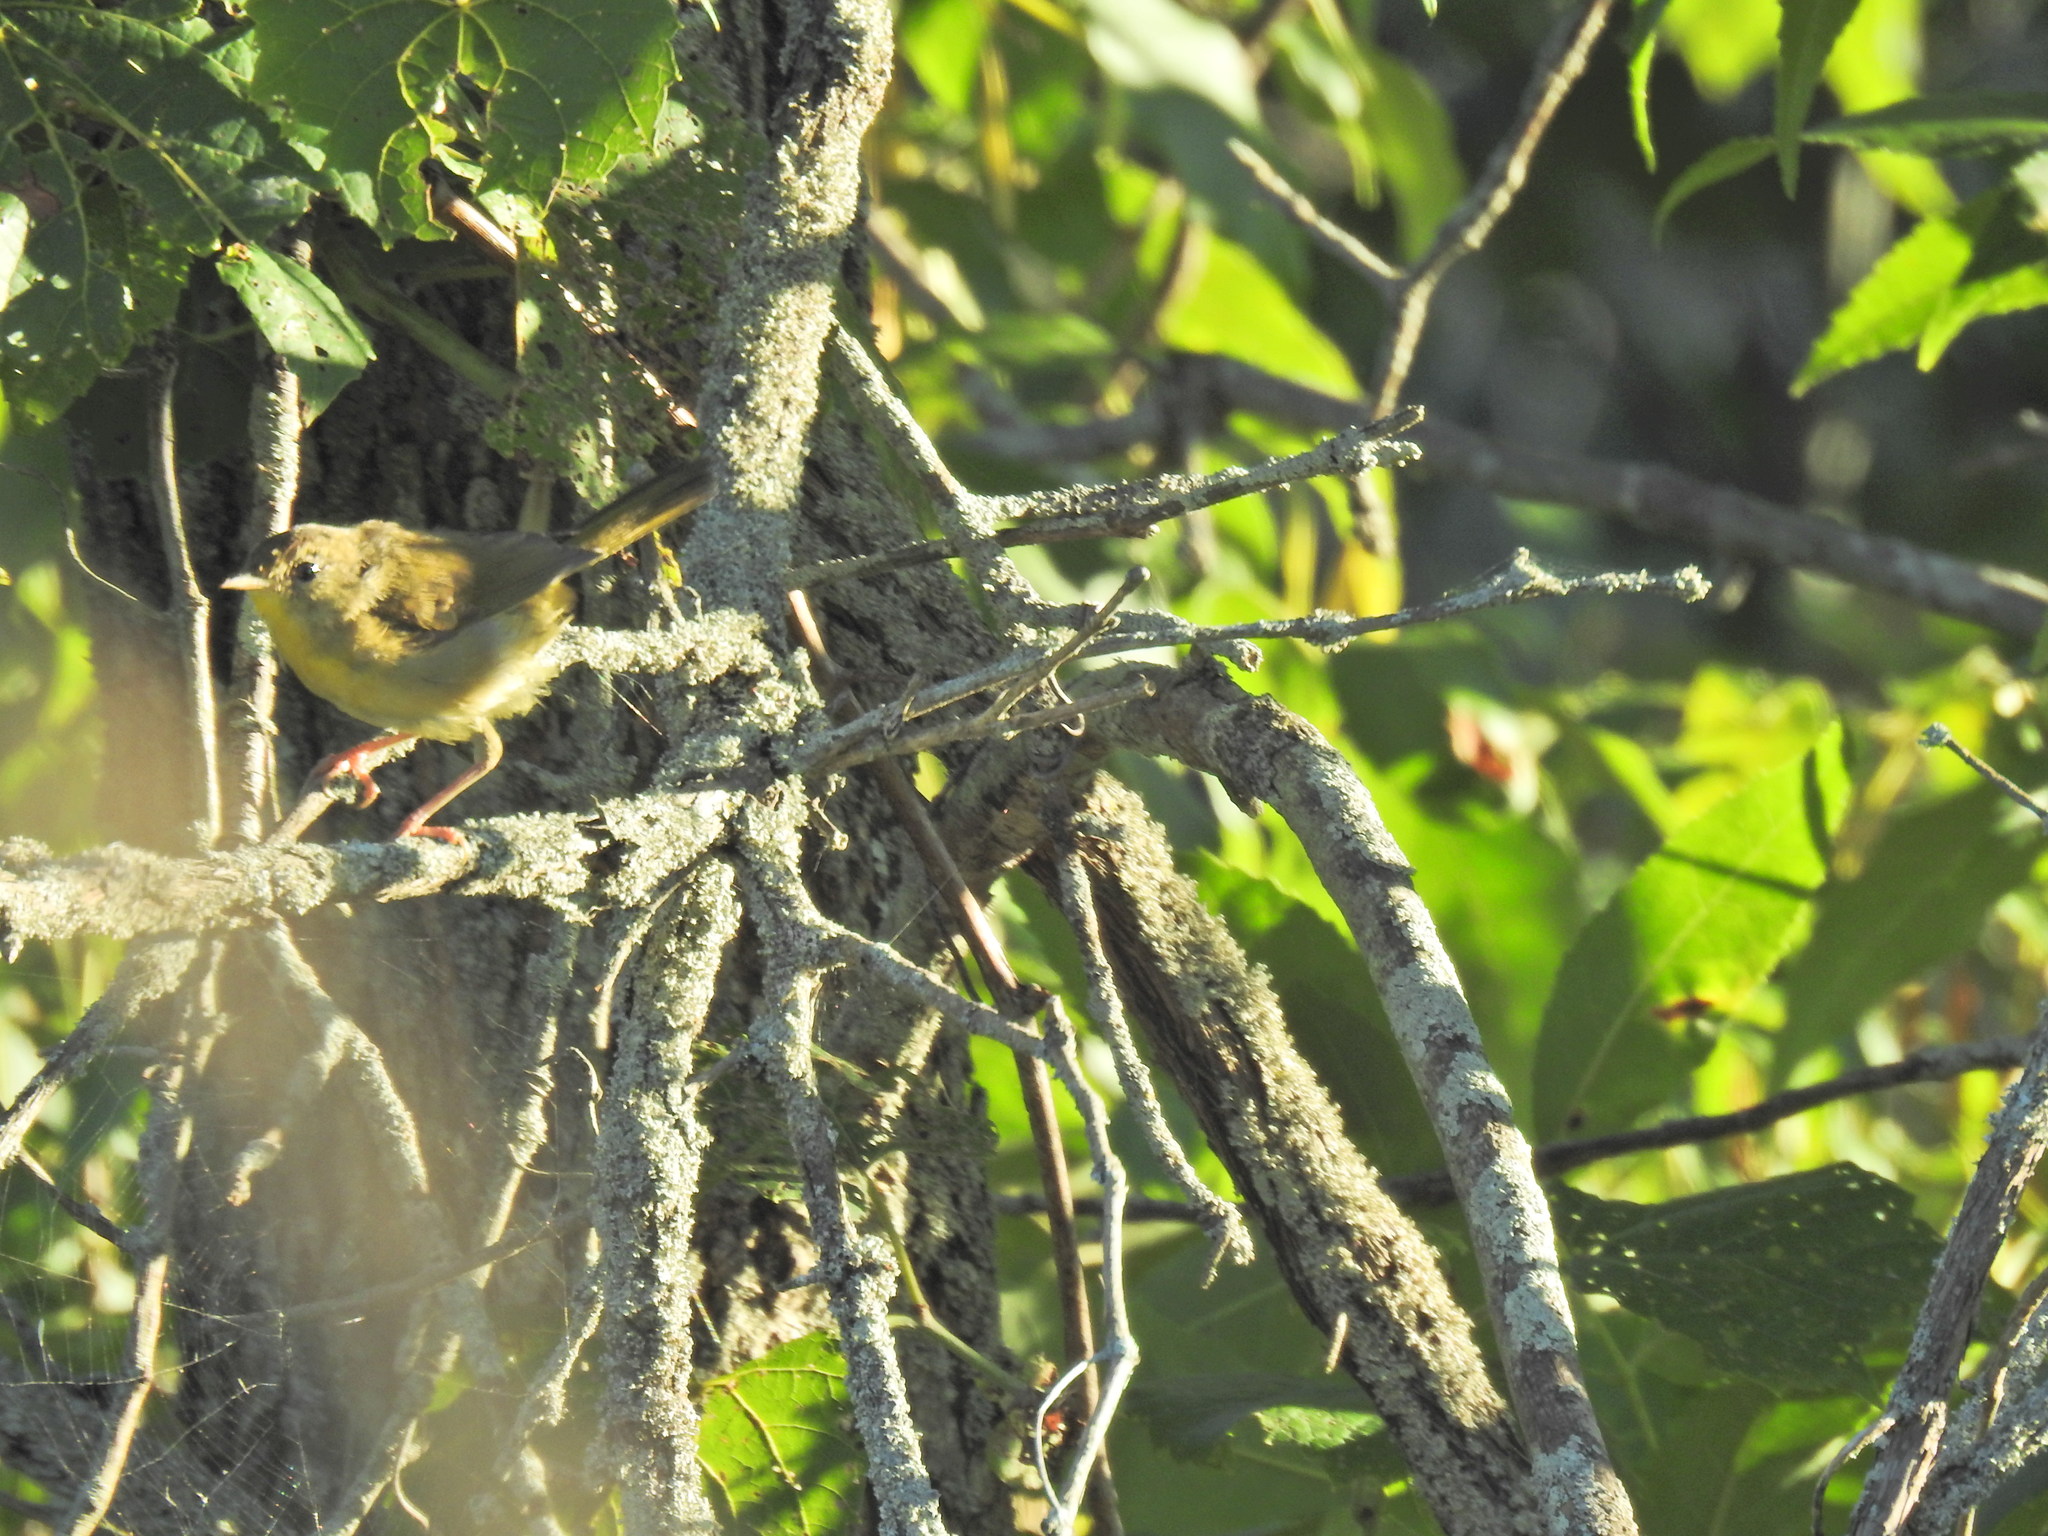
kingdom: Animalia
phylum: Chordata
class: Aves
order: Passeriformes
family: Parulidae
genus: Geothlypis
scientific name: Geothlypis trichas
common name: Common yellowthroat
